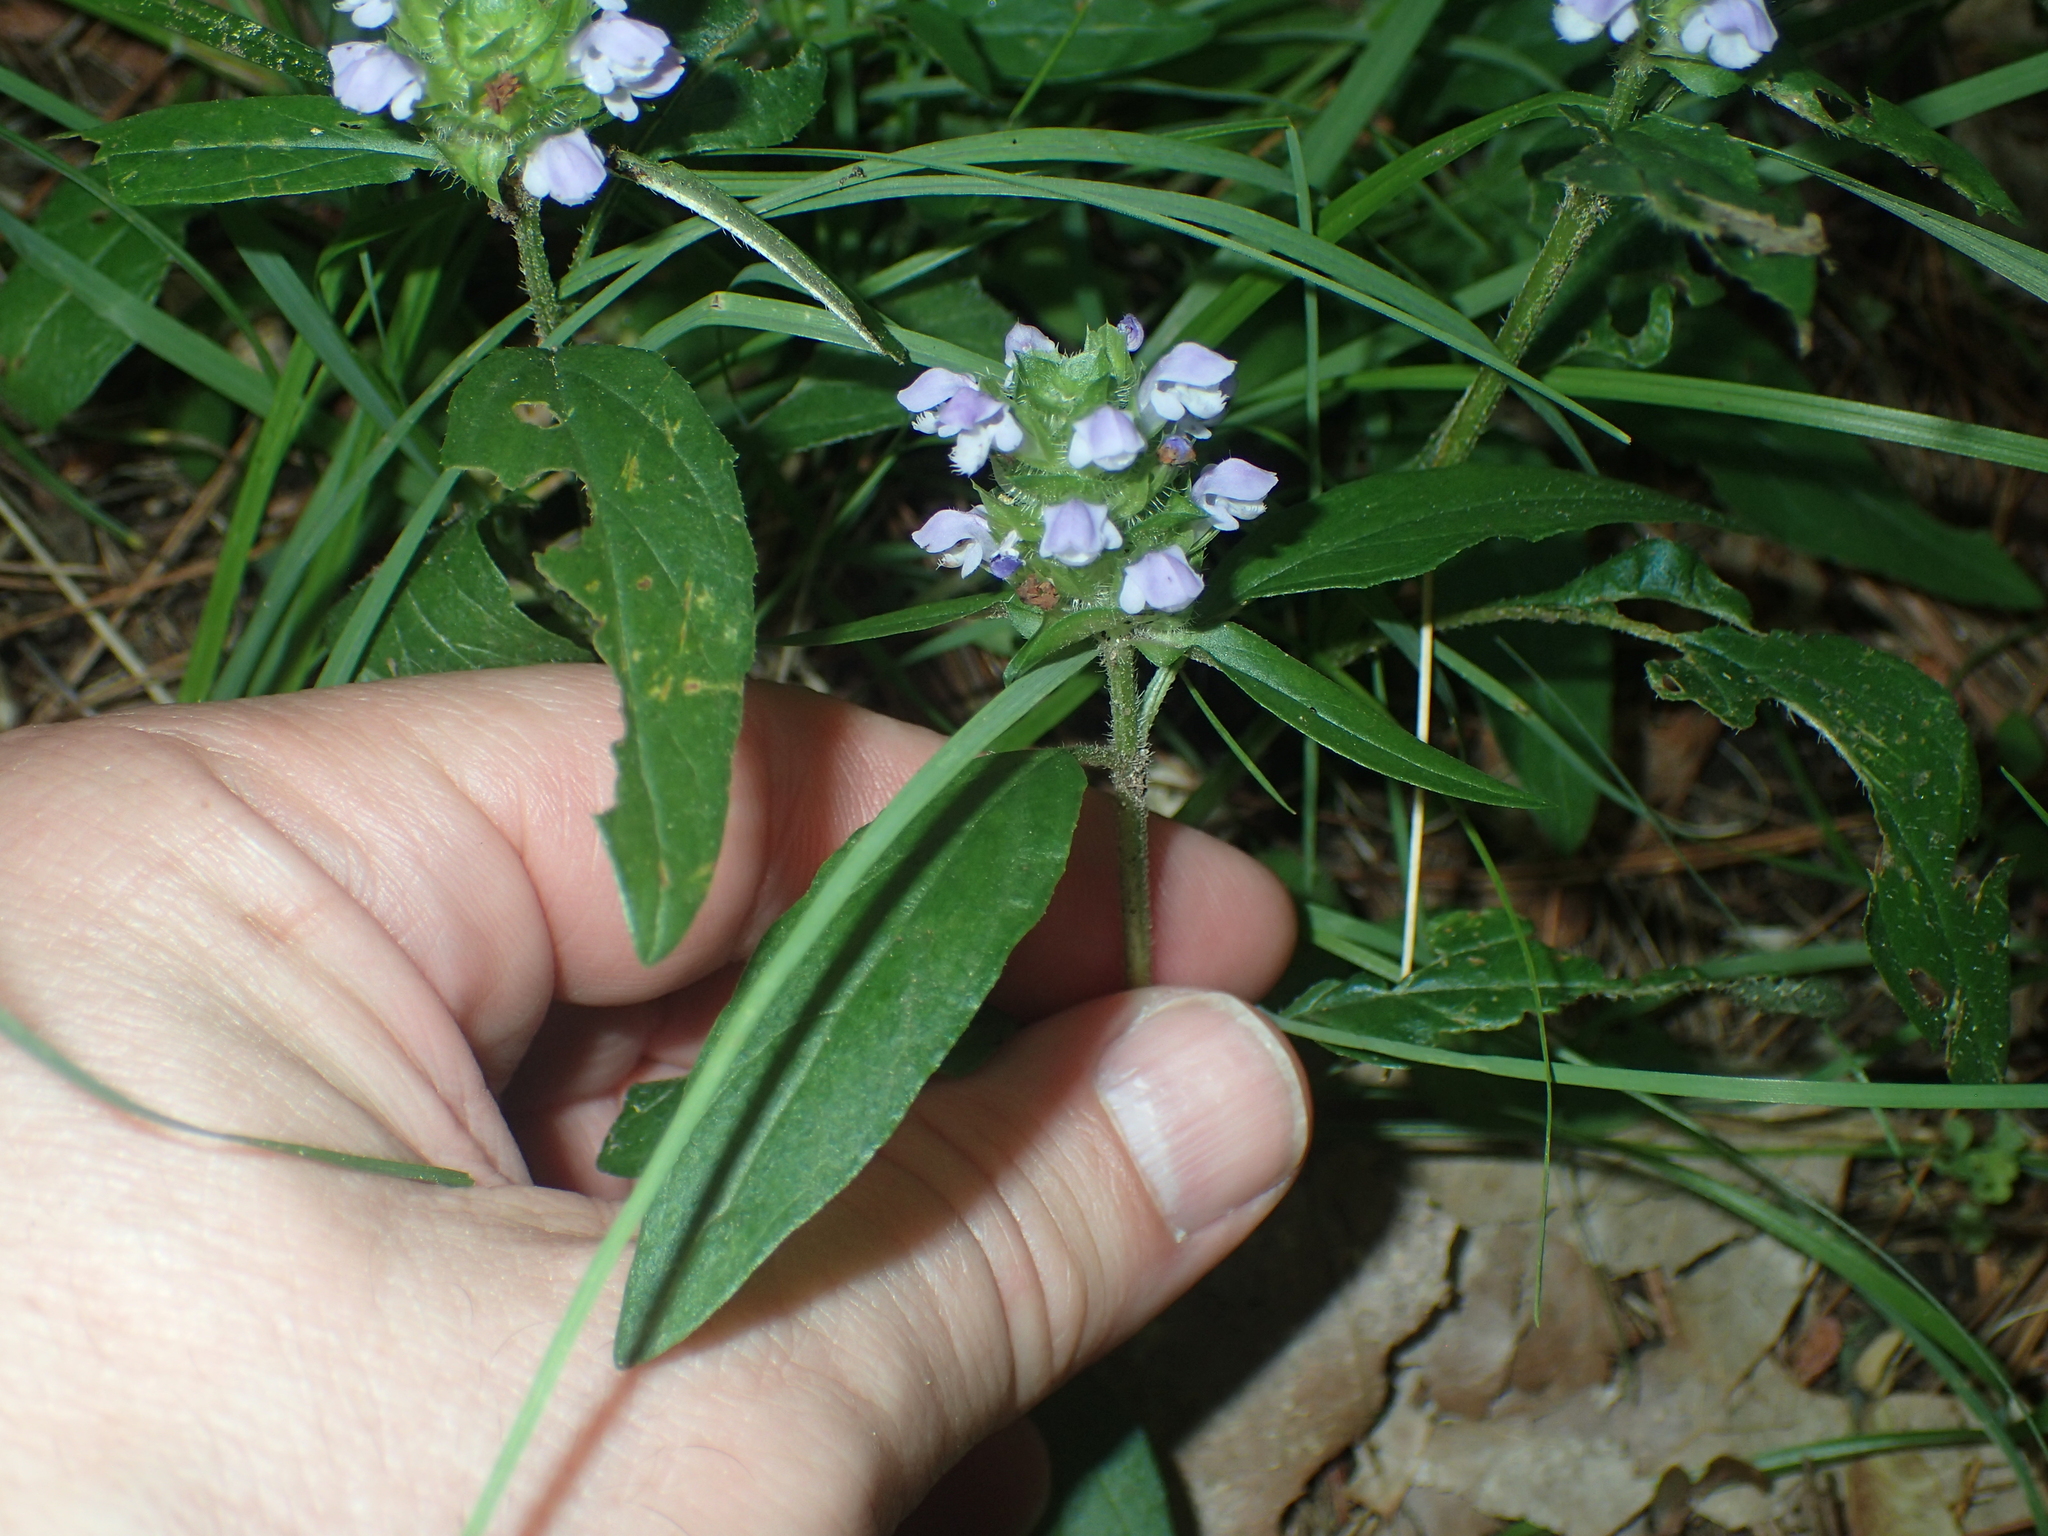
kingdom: Plantae
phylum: Tracheophyta
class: Magnoliopsida
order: Lamiales
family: Lamiaceae
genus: Prunella
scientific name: Prunella vulgaris
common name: Heal-all
